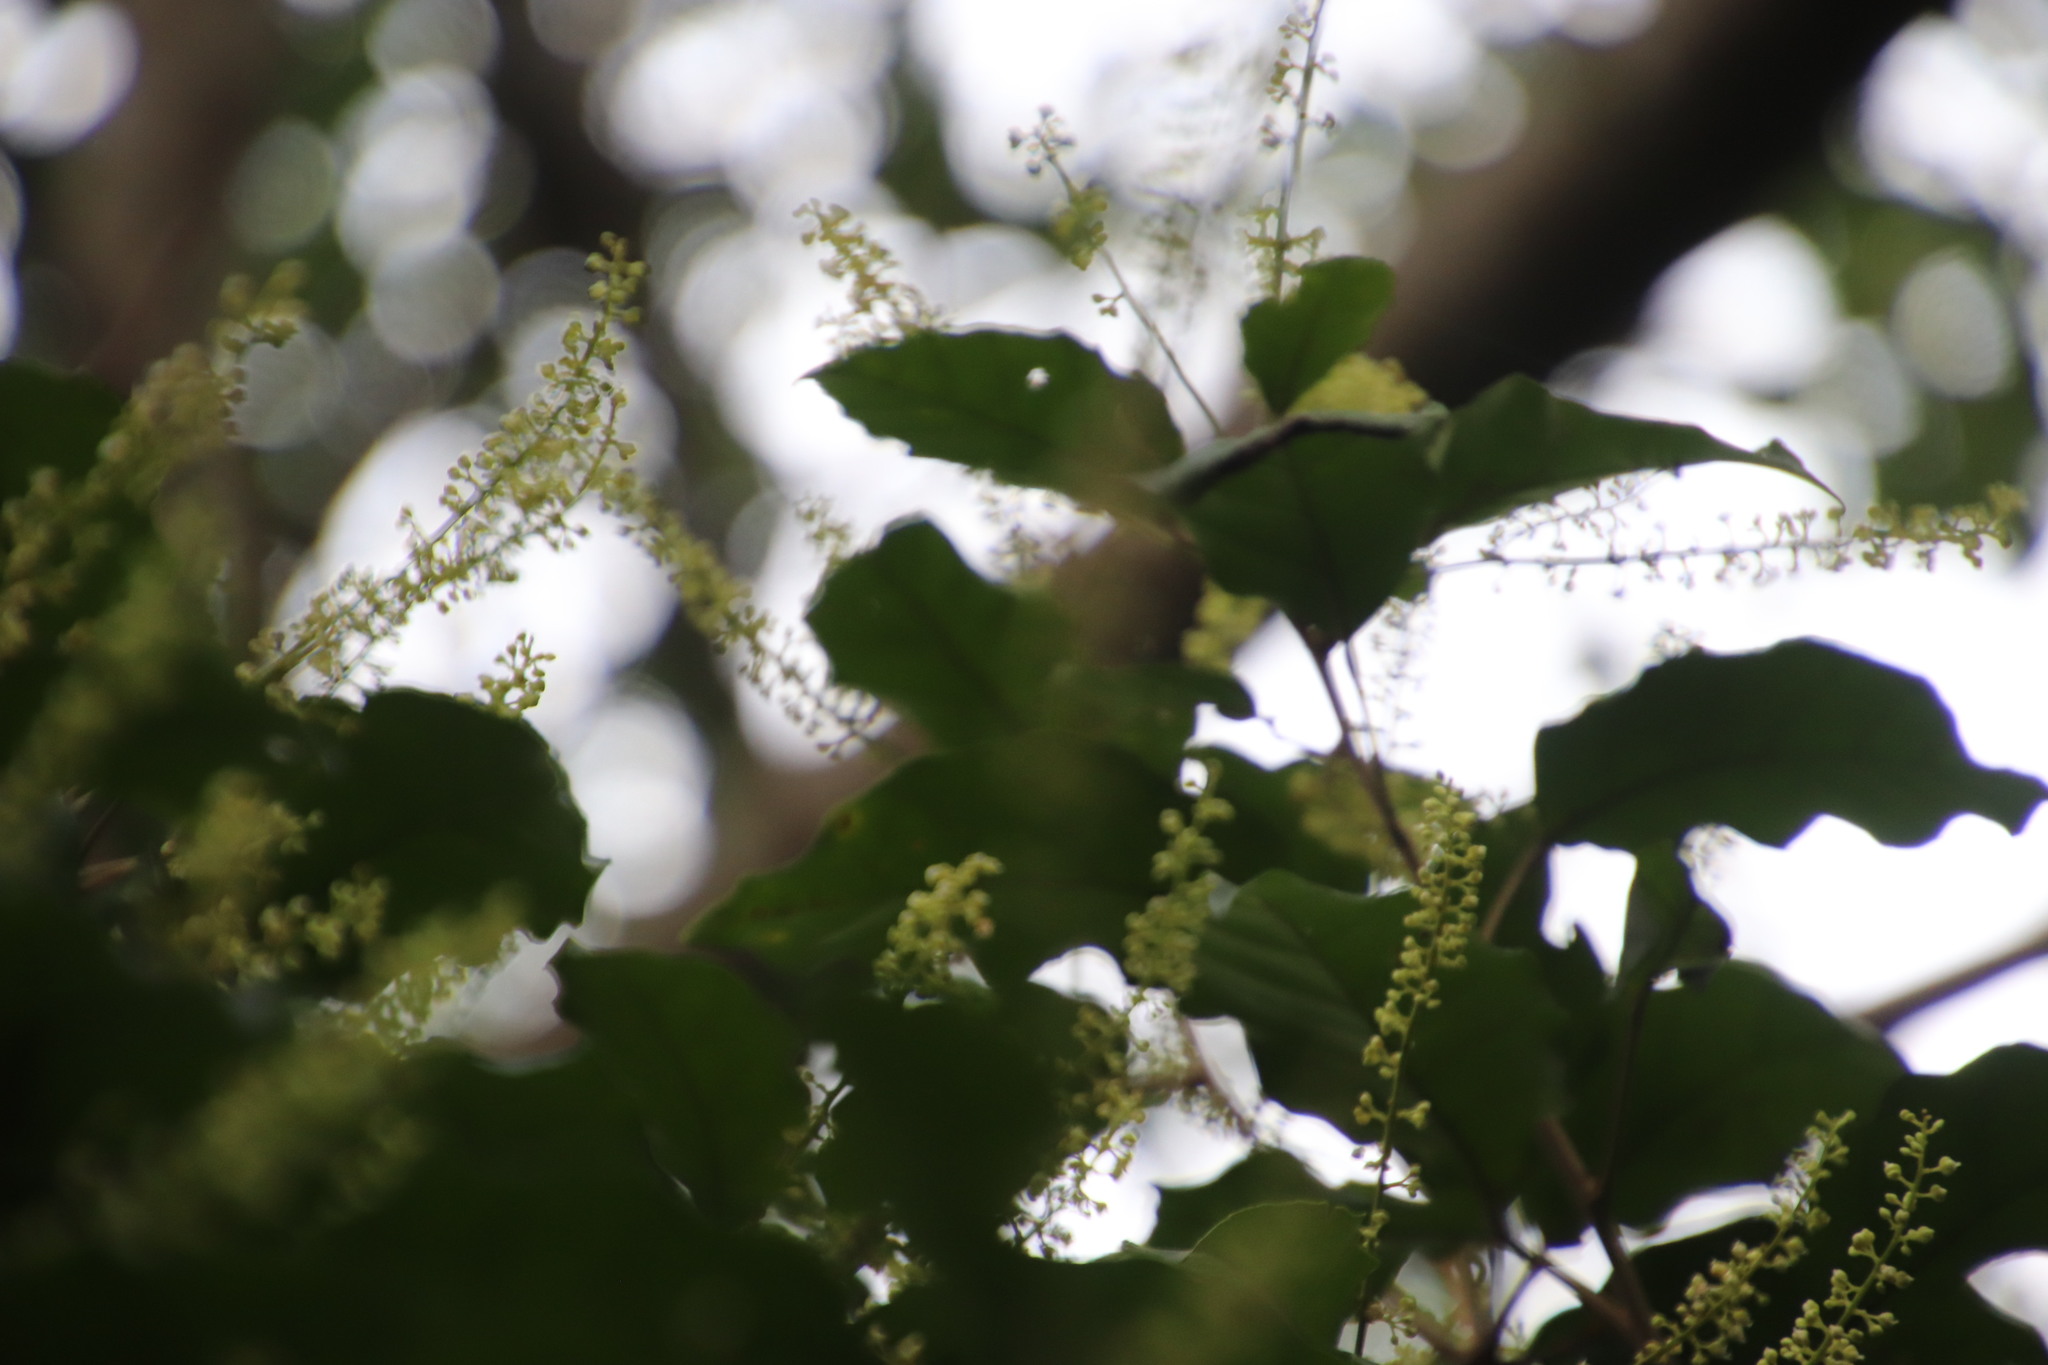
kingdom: Plantae
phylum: Tracheophyta
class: Magnoliopsida
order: Sapindales
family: Sapindaceae
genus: Allophylus
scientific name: Allophylus dregeanus
